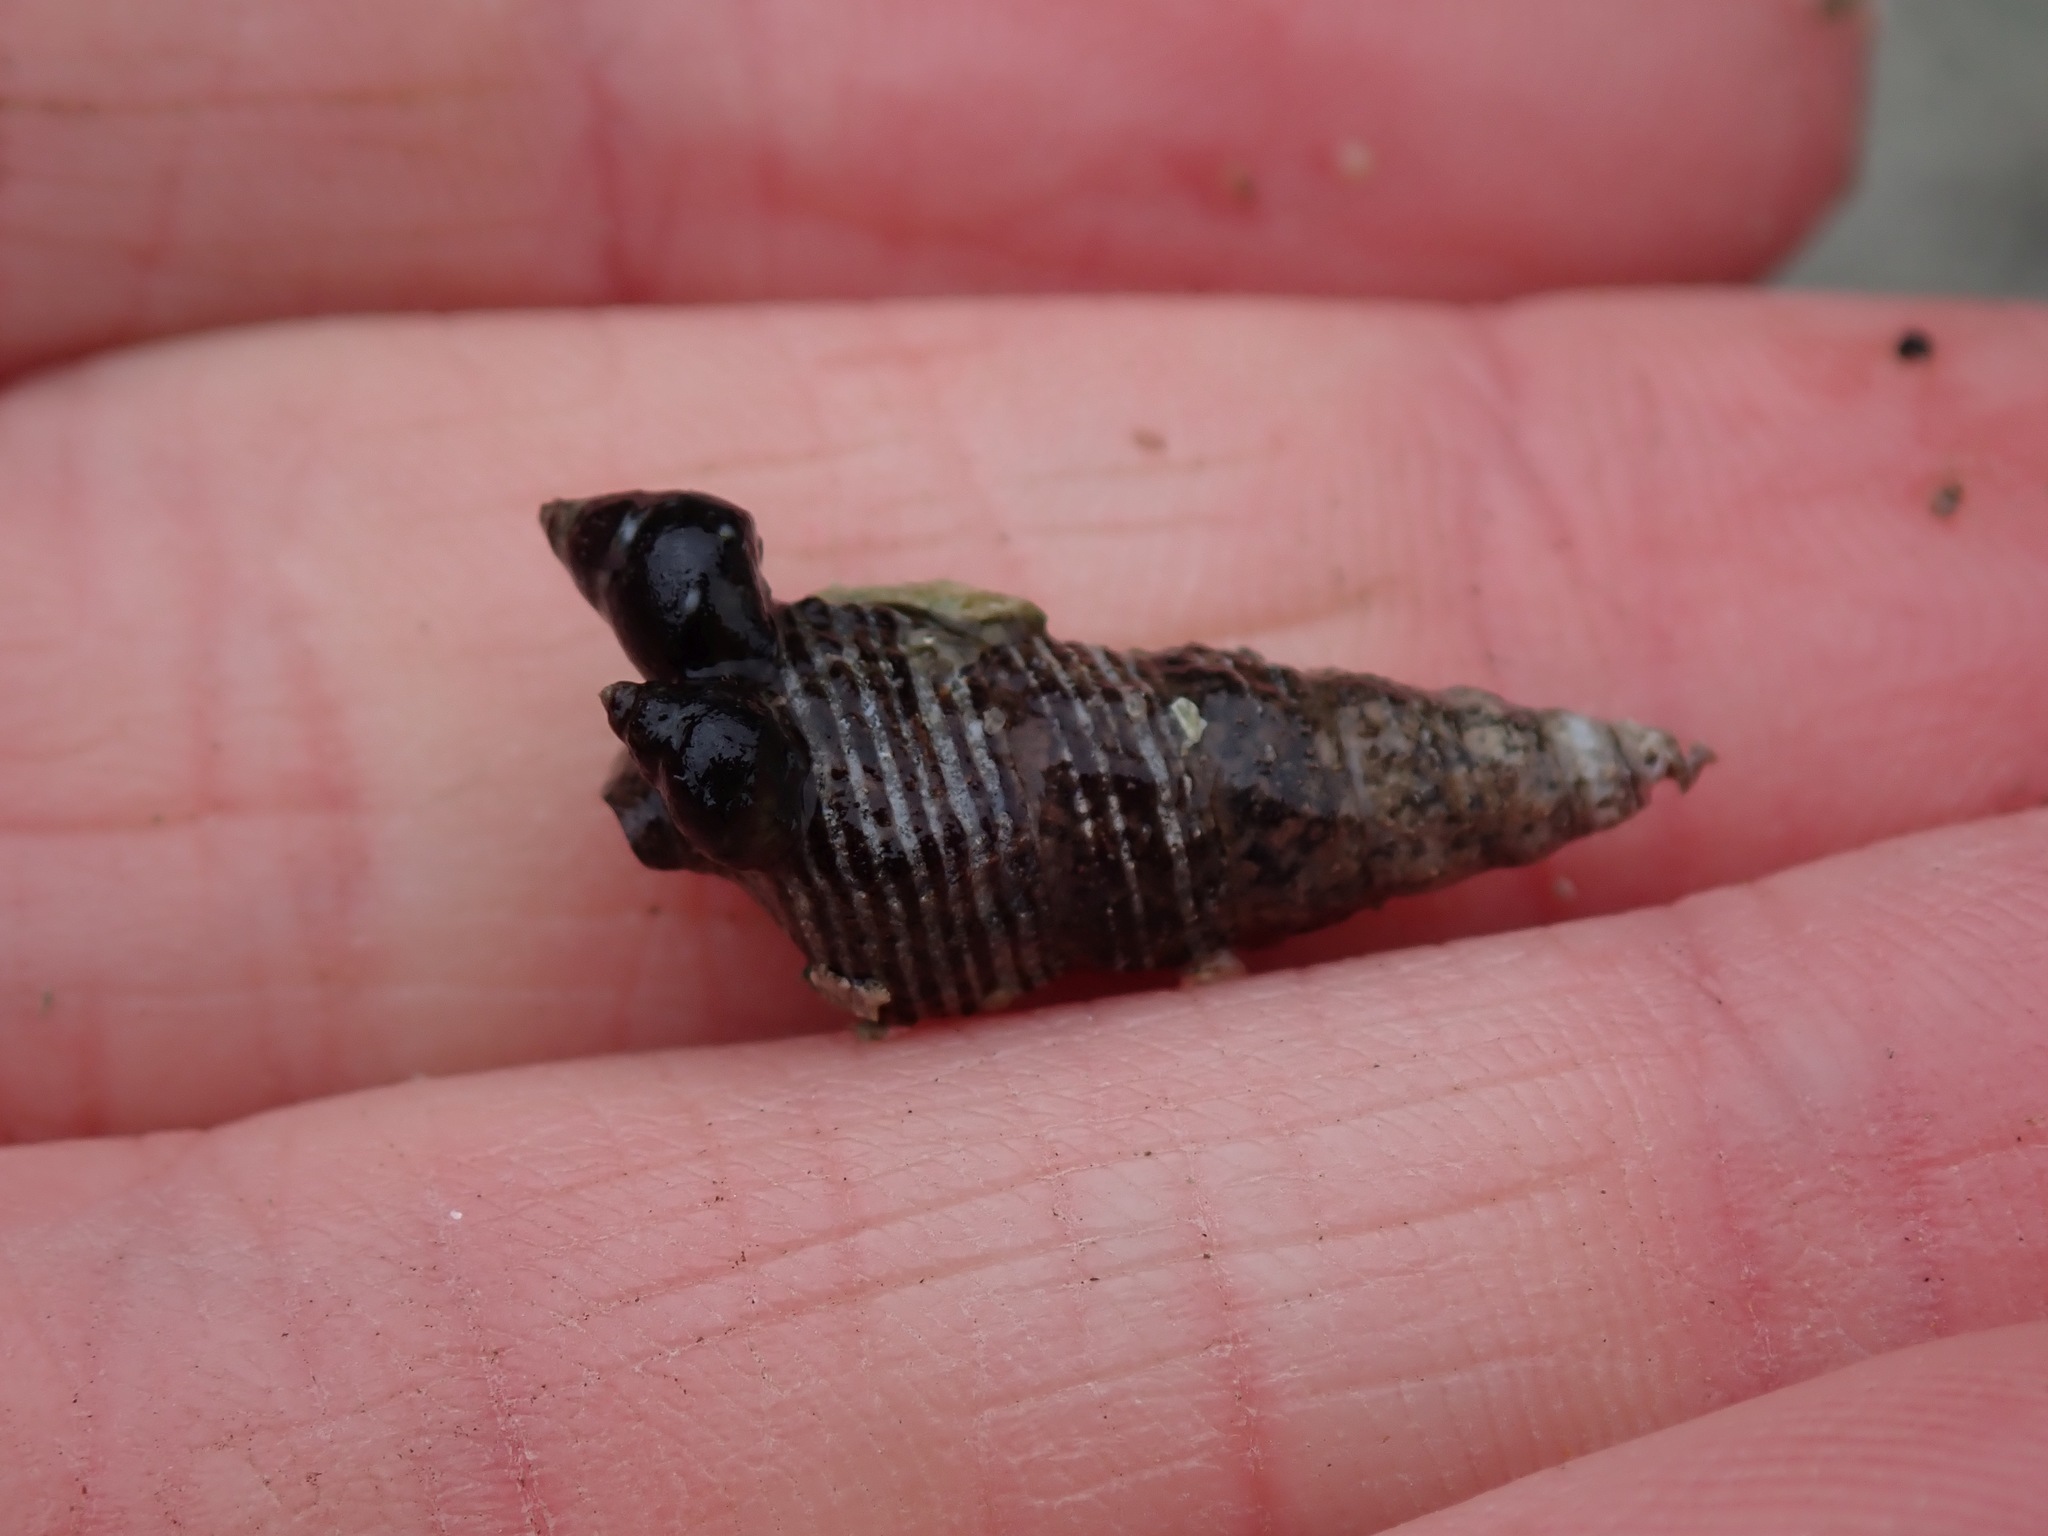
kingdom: Animalia
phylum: Mollusca
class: Gastropoda
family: Batillariidae
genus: Batillaria
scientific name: Batillaria attramentaria
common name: Japanese false cerith
